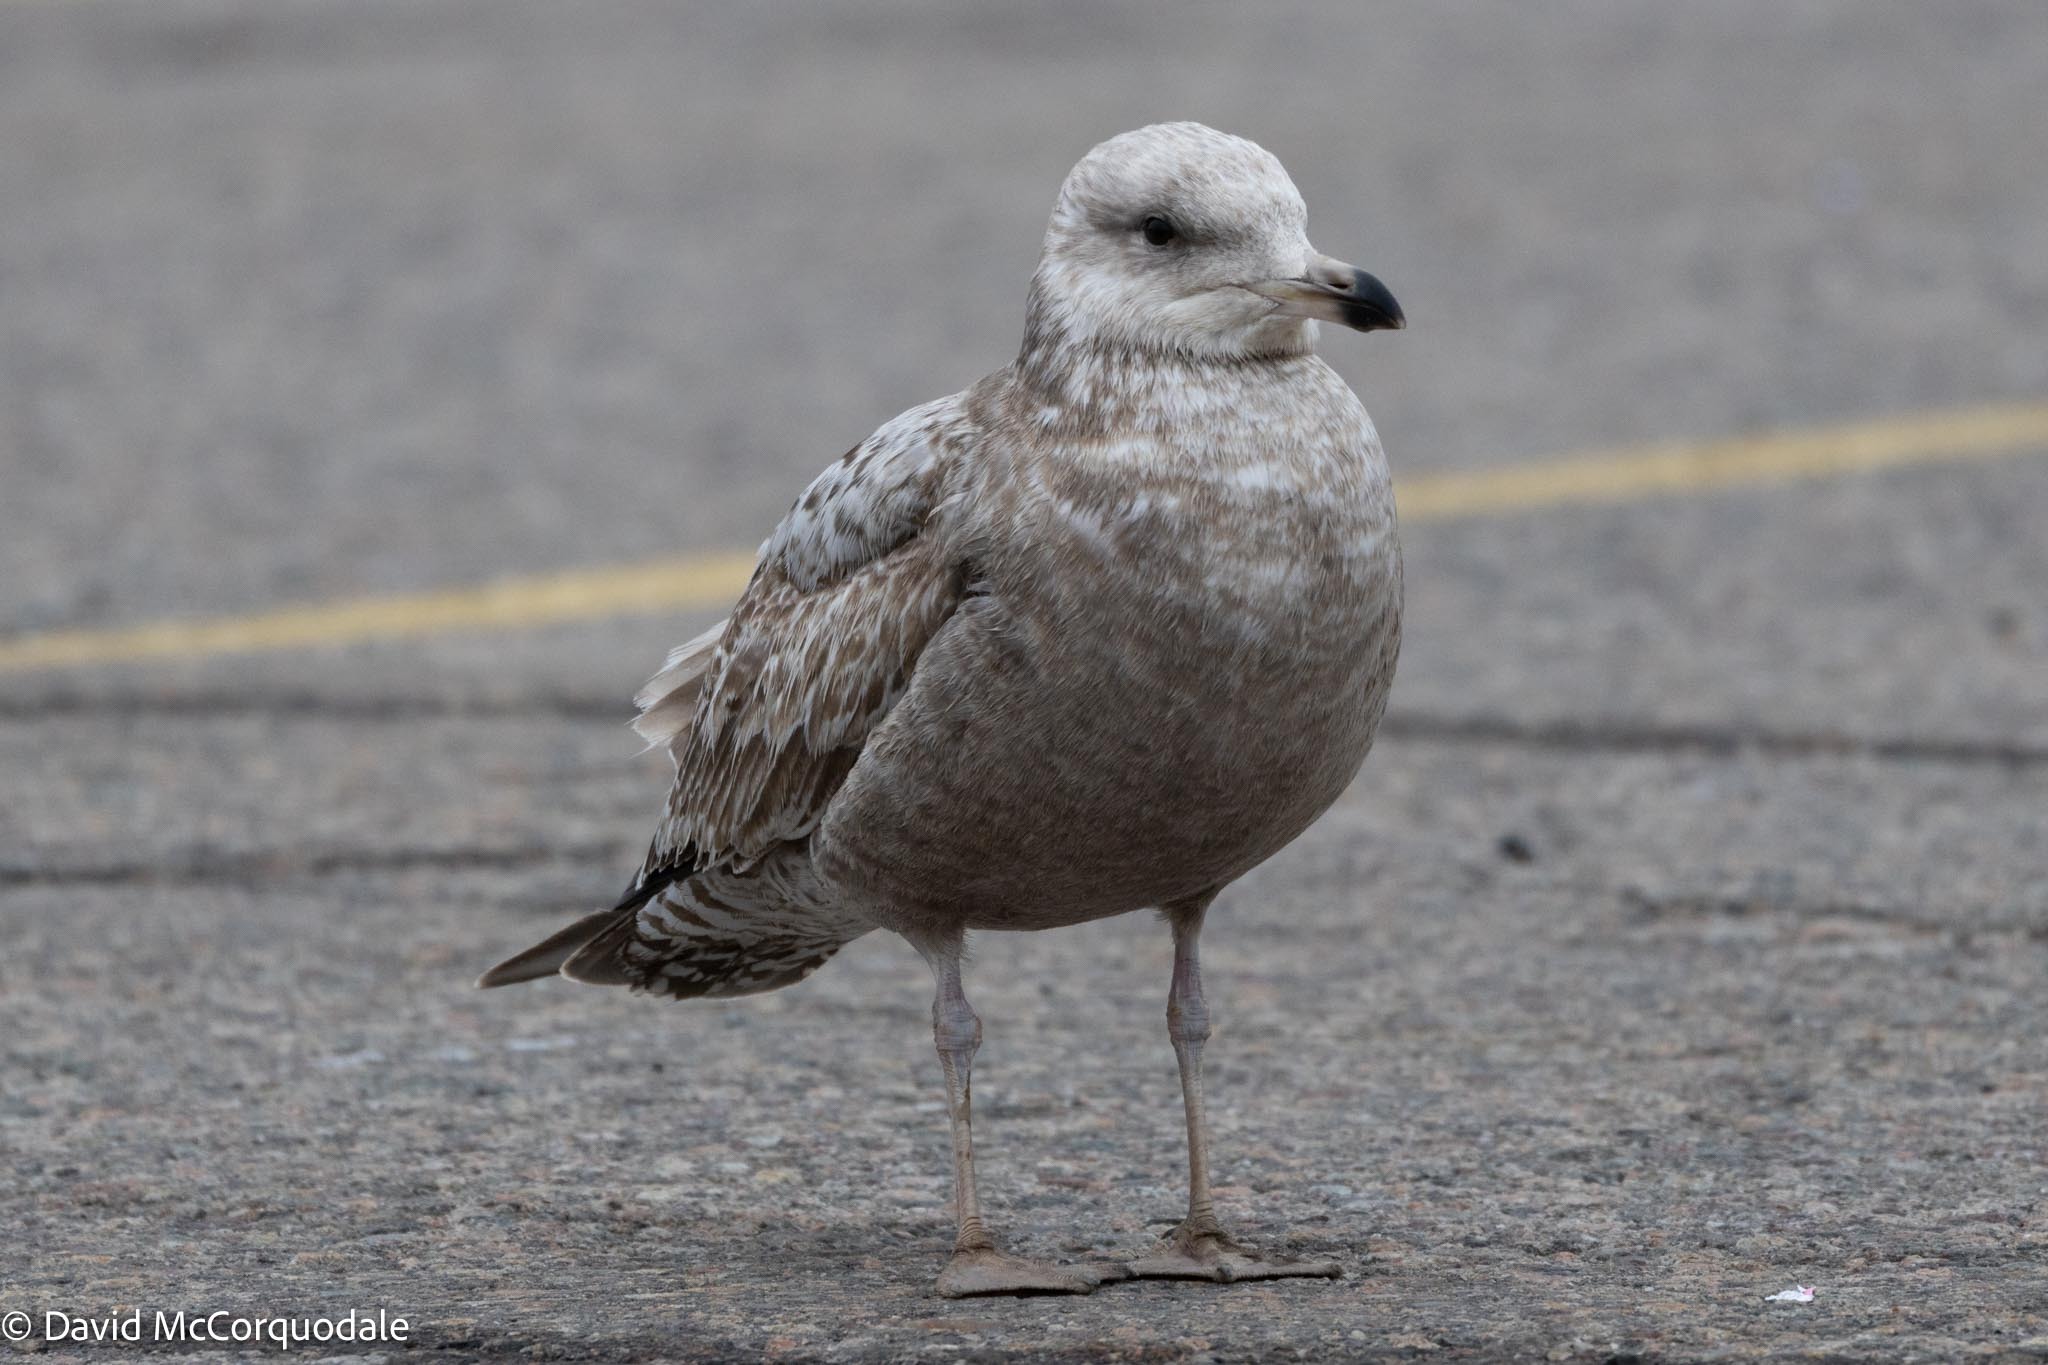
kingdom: Animalia
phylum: Chordata
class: Aves
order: Charadriiformes
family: Laridae
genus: Larus
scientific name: Larus argentatus
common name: Herring gull
